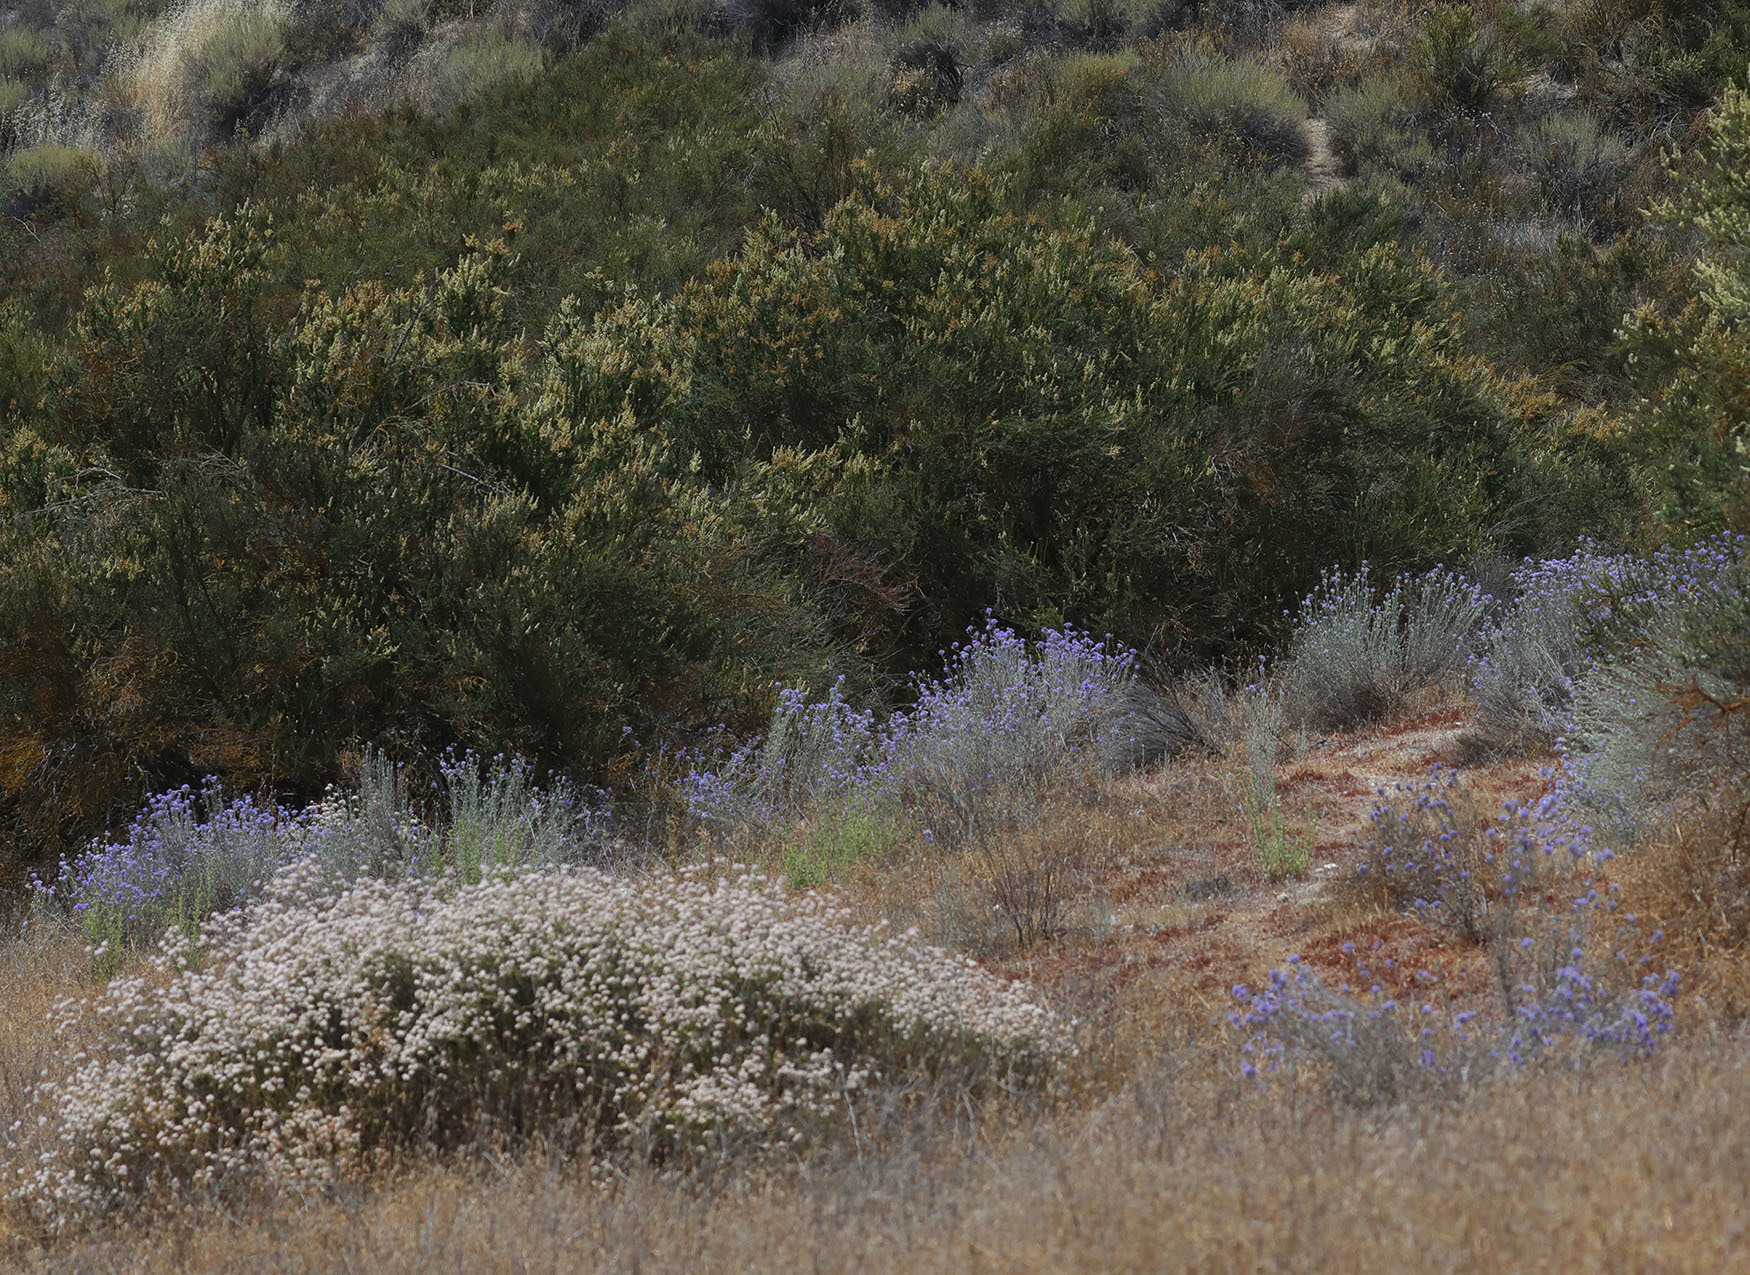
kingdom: Plantae
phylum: Tracheophyta
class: Magnoliopsida
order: Ericales
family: Polemoniaceae
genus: Eriastrum
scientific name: Eriastrum densifolium
